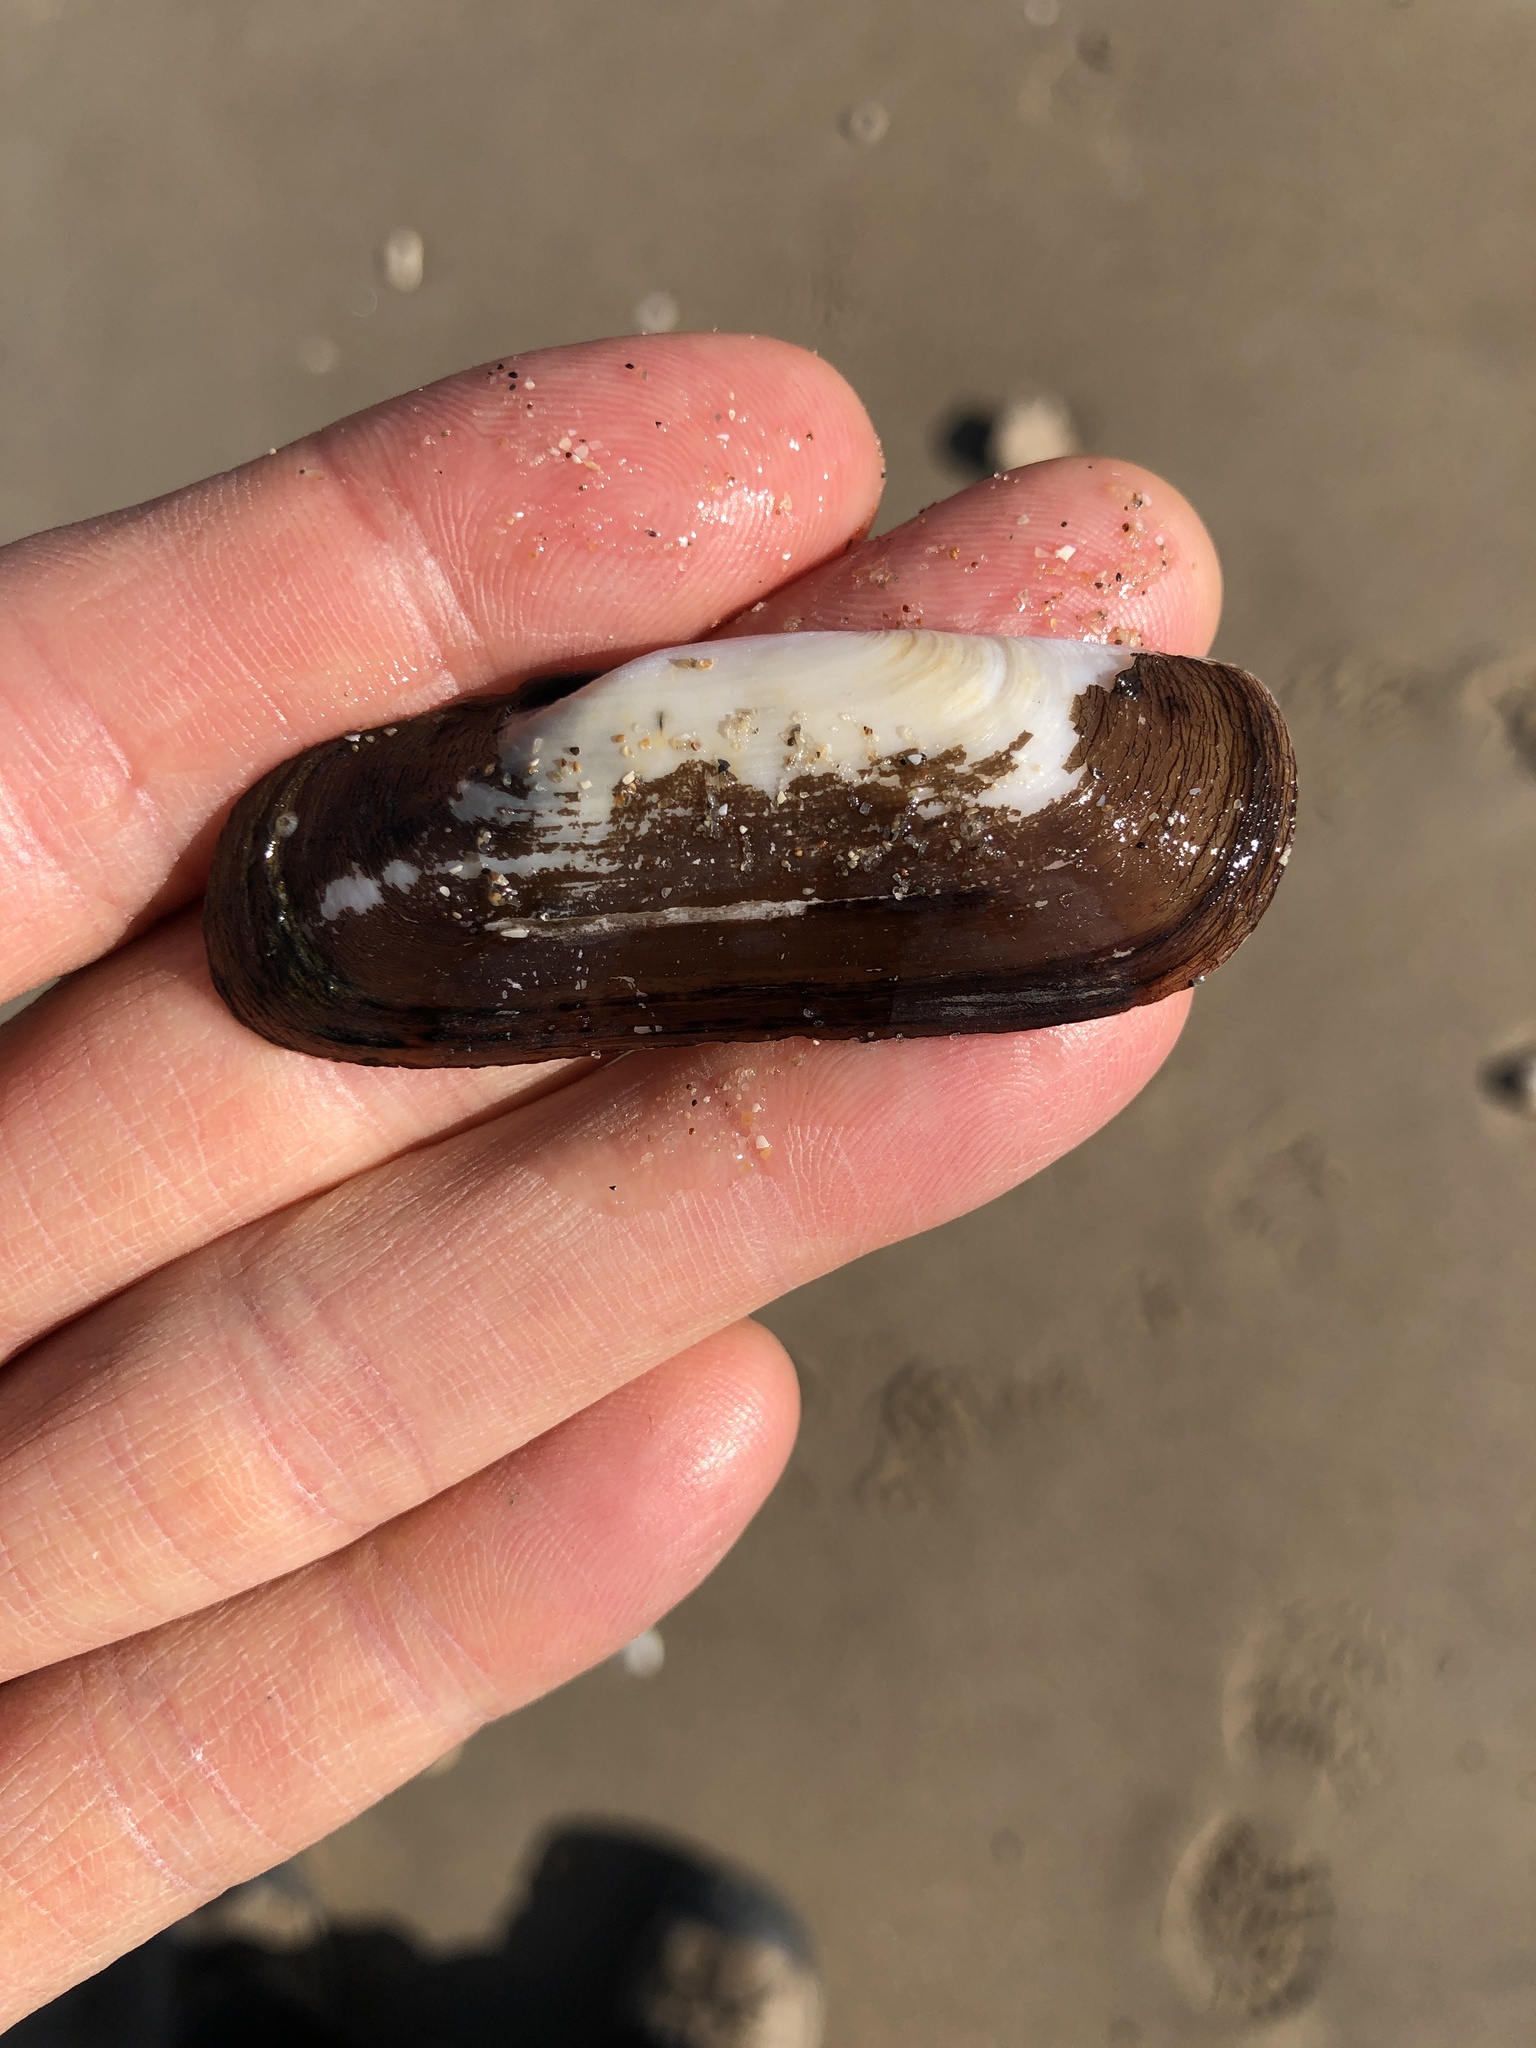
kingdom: Animalia
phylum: Mollusca
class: Bivalvia
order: Cardiida
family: Solecurtidae
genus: Tagelus
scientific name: Tagelus plebeius
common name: Stout tagelus
